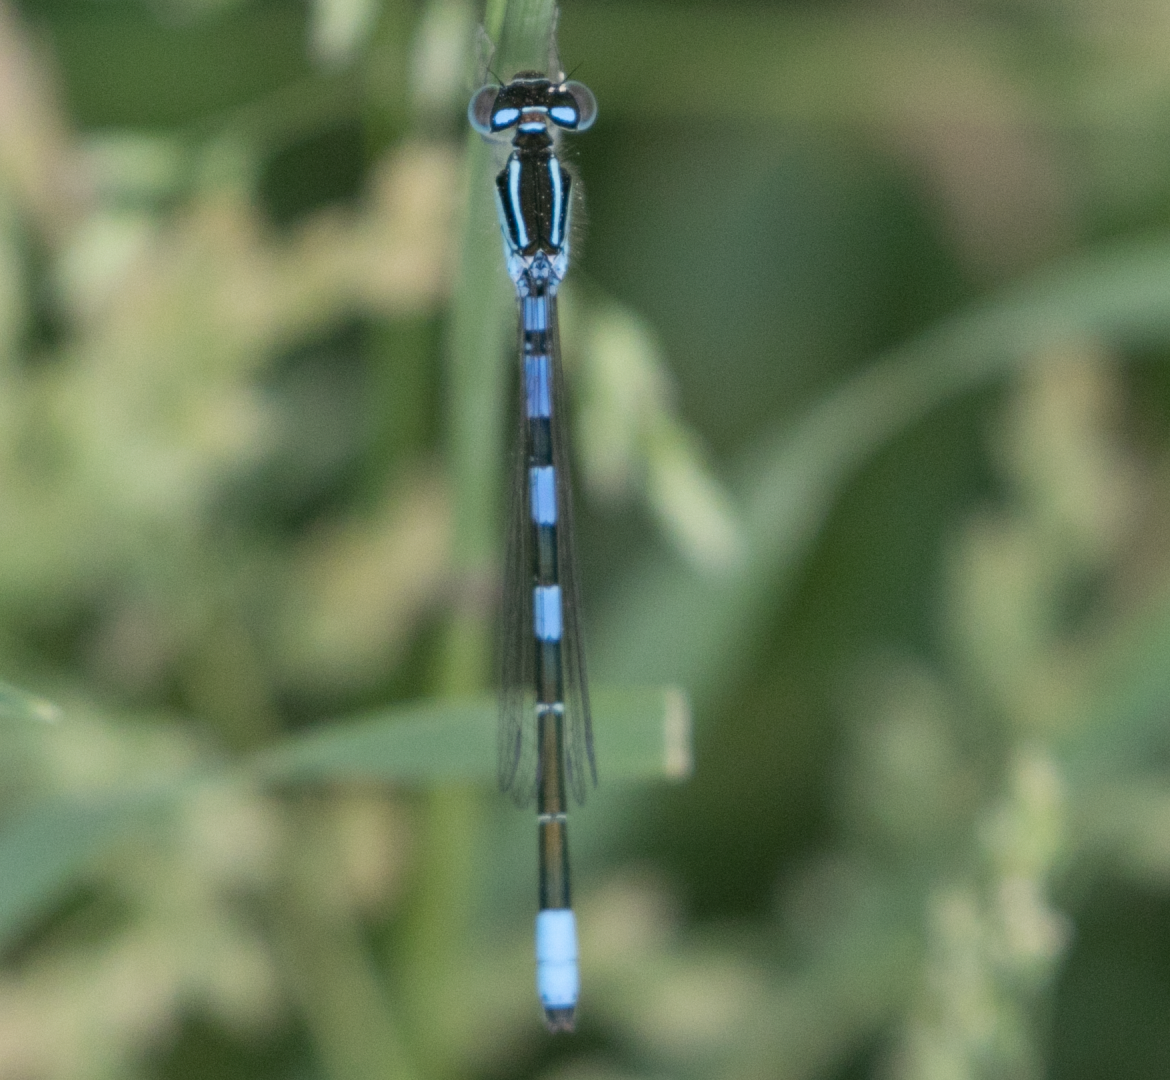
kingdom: Animalia
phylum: Arthropoda
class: Insecta
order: Odonata
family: Coenagrionidae
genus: Coenagrion
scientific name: Coenagrion scitulum
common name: Dainty bluet
